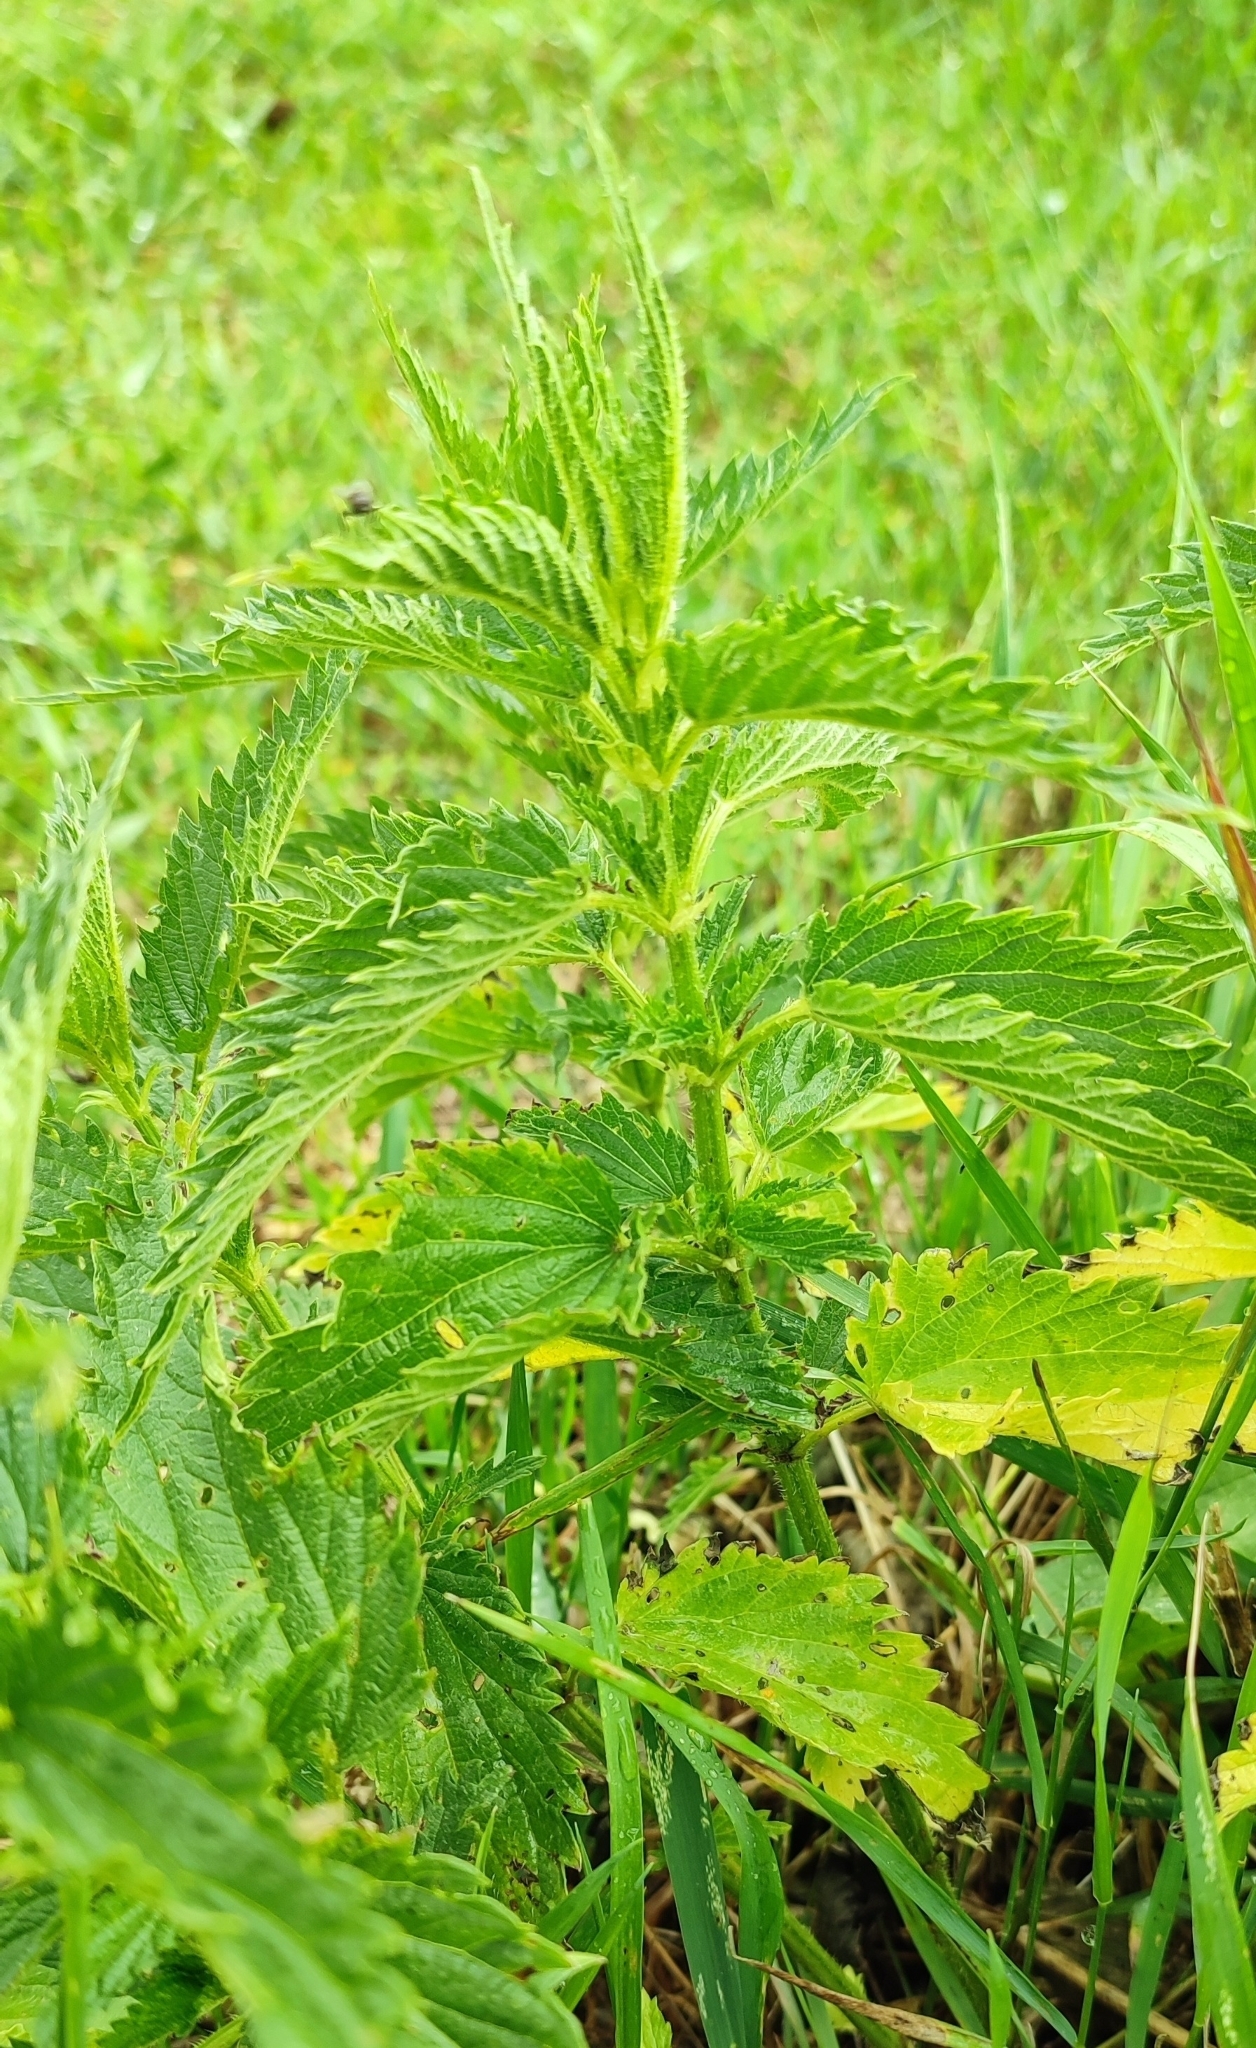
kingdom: Plantae
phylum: Tracheophyta
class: Magnoliopsida
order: Rosales
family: Urticaceae
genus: Urtica
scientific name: Urtica dioica
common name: Common nettle
